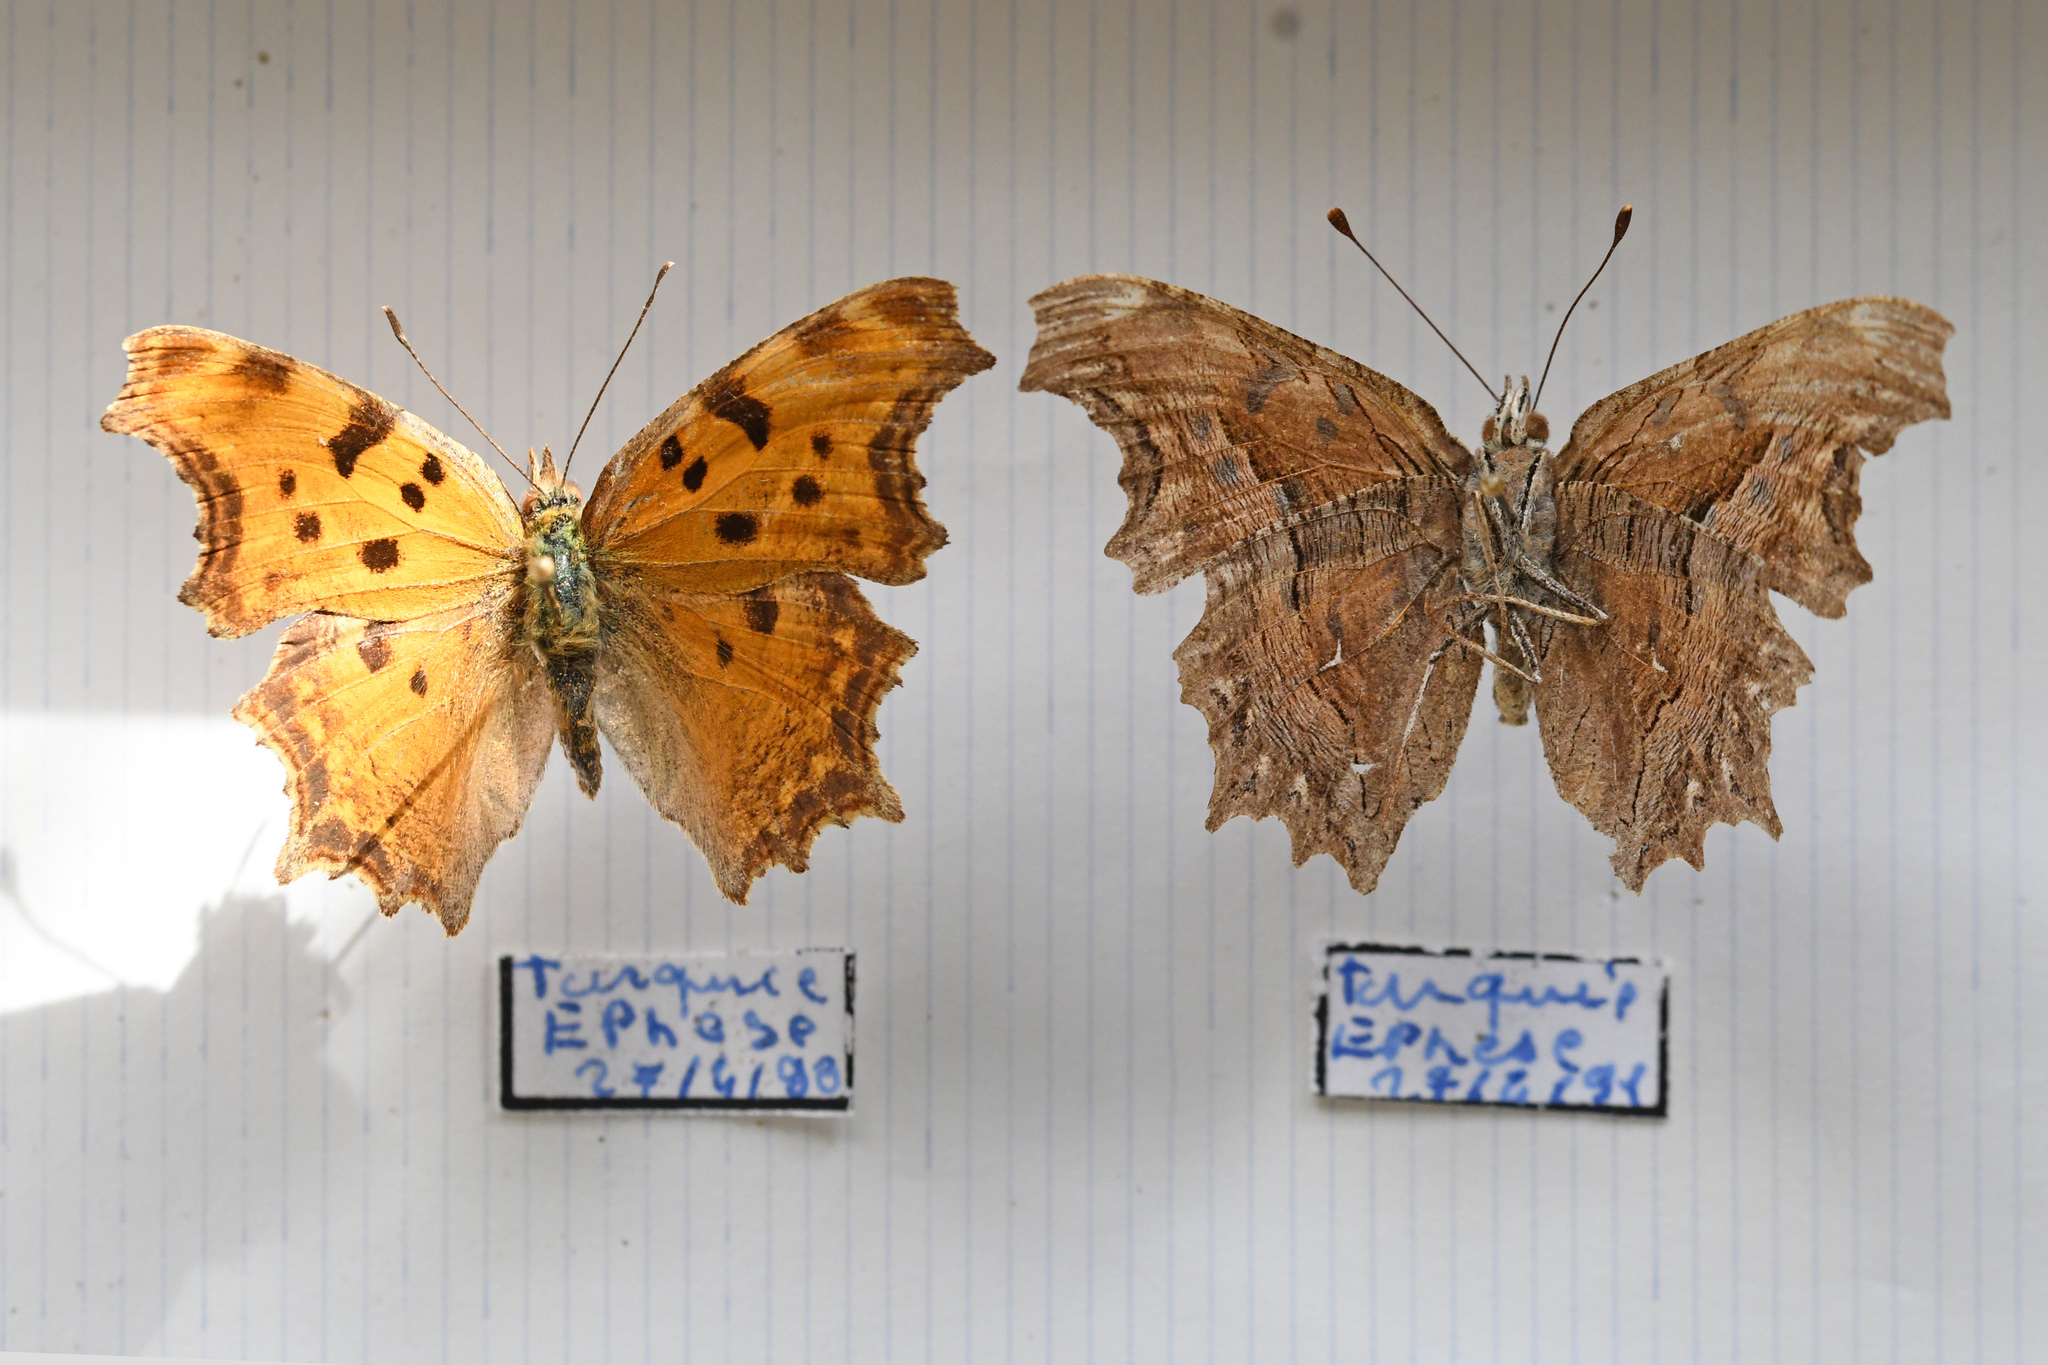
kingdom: Animalia
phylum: Arthropoda
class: Insecta
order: Lepidoptera
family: Nymphalidae
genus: Polygonia
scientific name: Polygonia egea
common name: Southern comma
